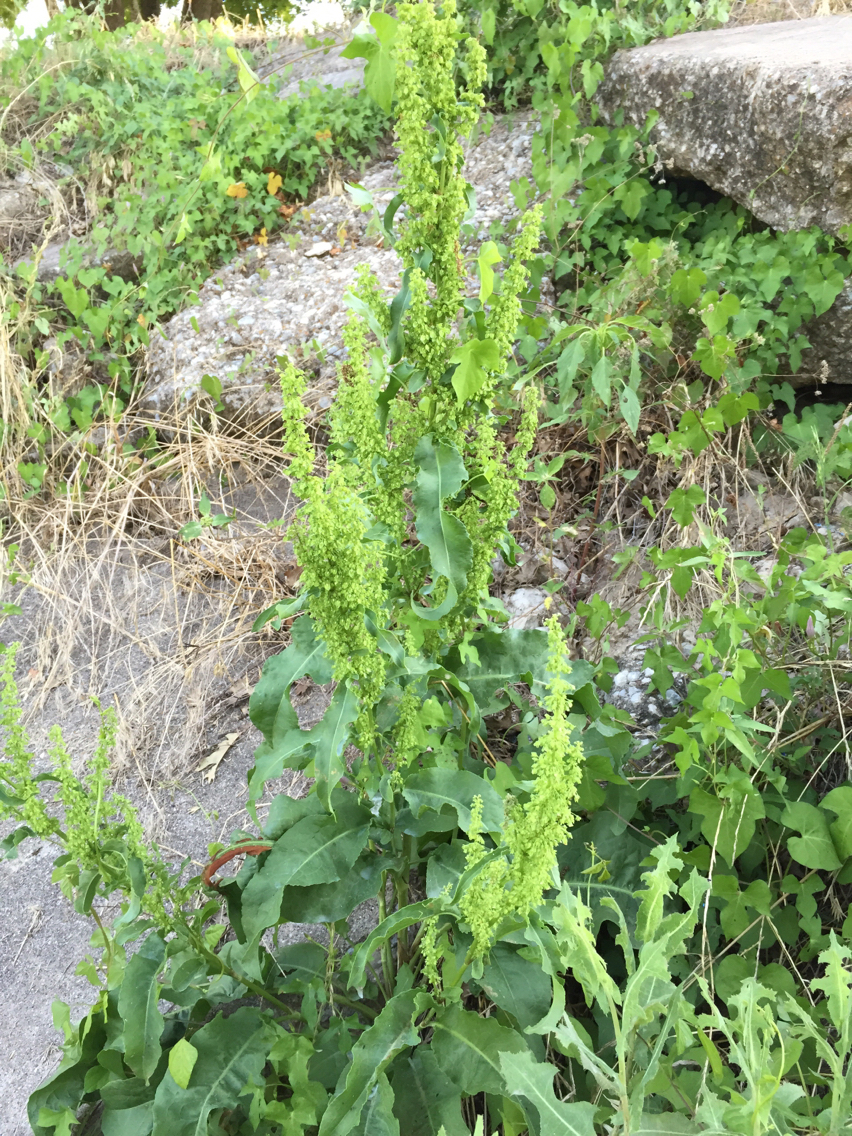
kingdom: Plantae
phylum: Tracheophyta
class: Magnoliopsida
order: Caryophyllales
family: Polygonaceae
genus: Rumex
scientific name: Rumex crispus
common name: Curled dock
